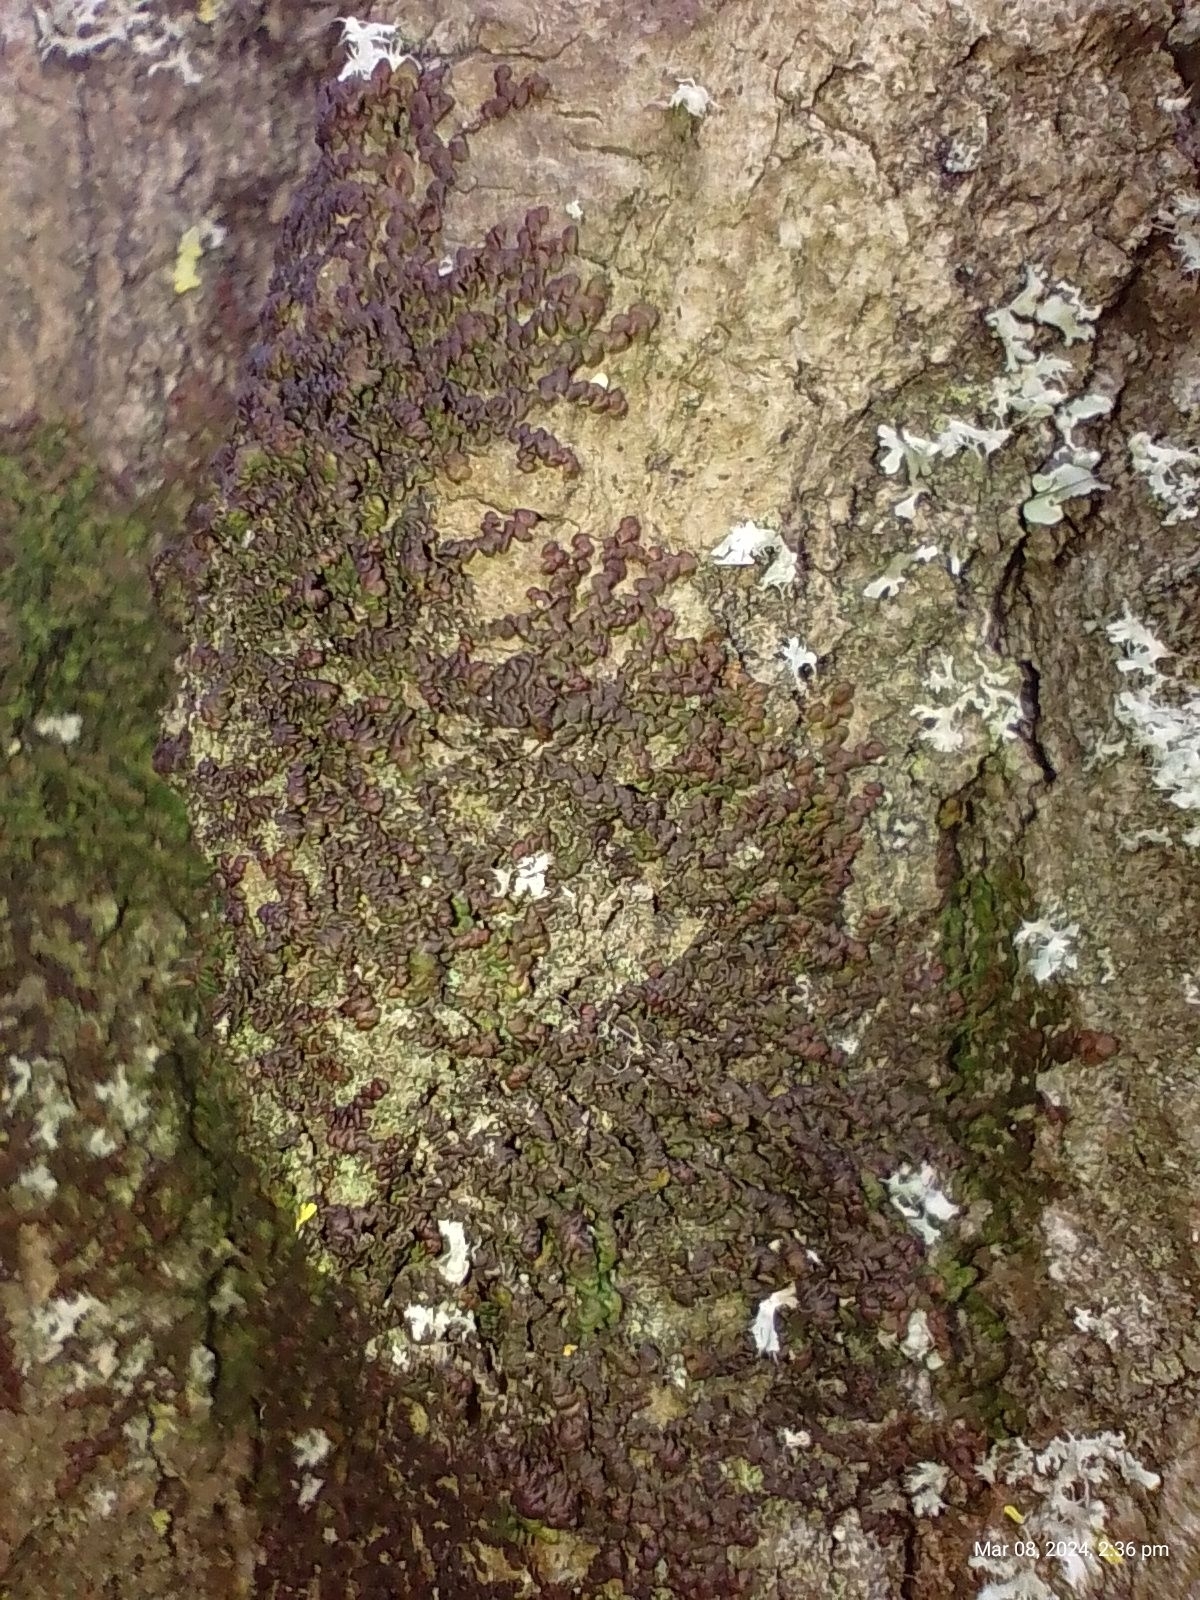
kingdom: Plantae
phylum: Marchantiophyta
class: Jungermanniopsida
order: Porellales
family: Frullaniaceae
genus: Frullania
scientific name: Frullania dilatata
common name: Dilated scalewort
